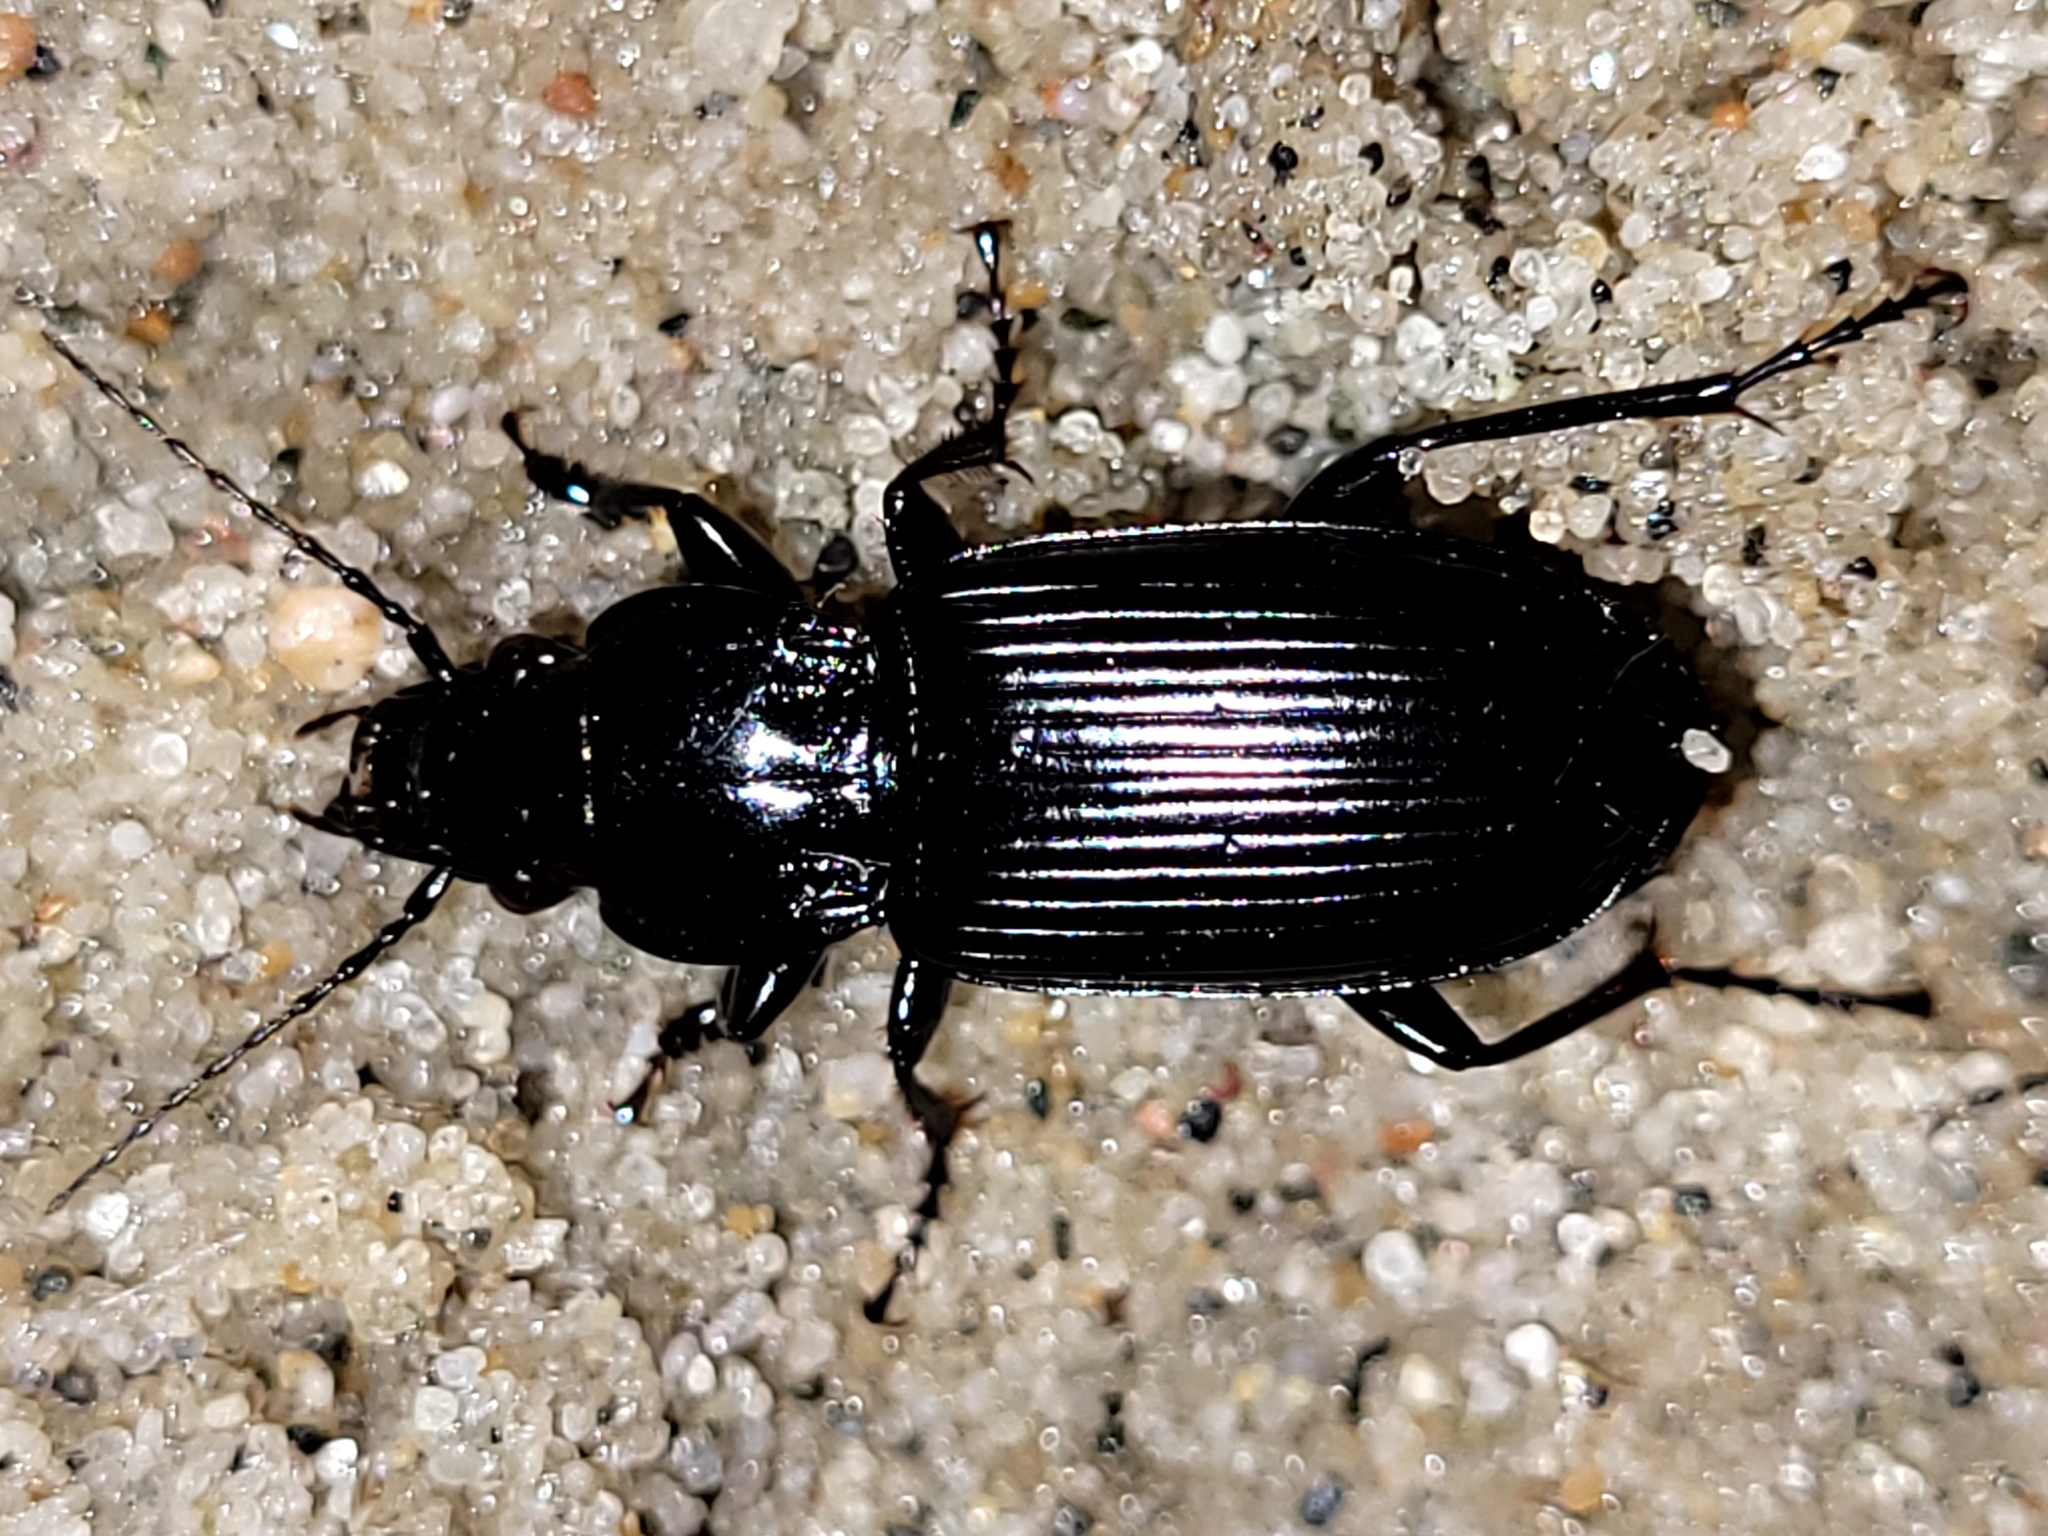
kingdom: Animalia
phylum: Arthropoda
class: Insecta
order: Coleoptera
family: Carabidae
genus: Pterostichus
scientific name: Pterostichus melanarius
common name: European dark harp ground beetle
